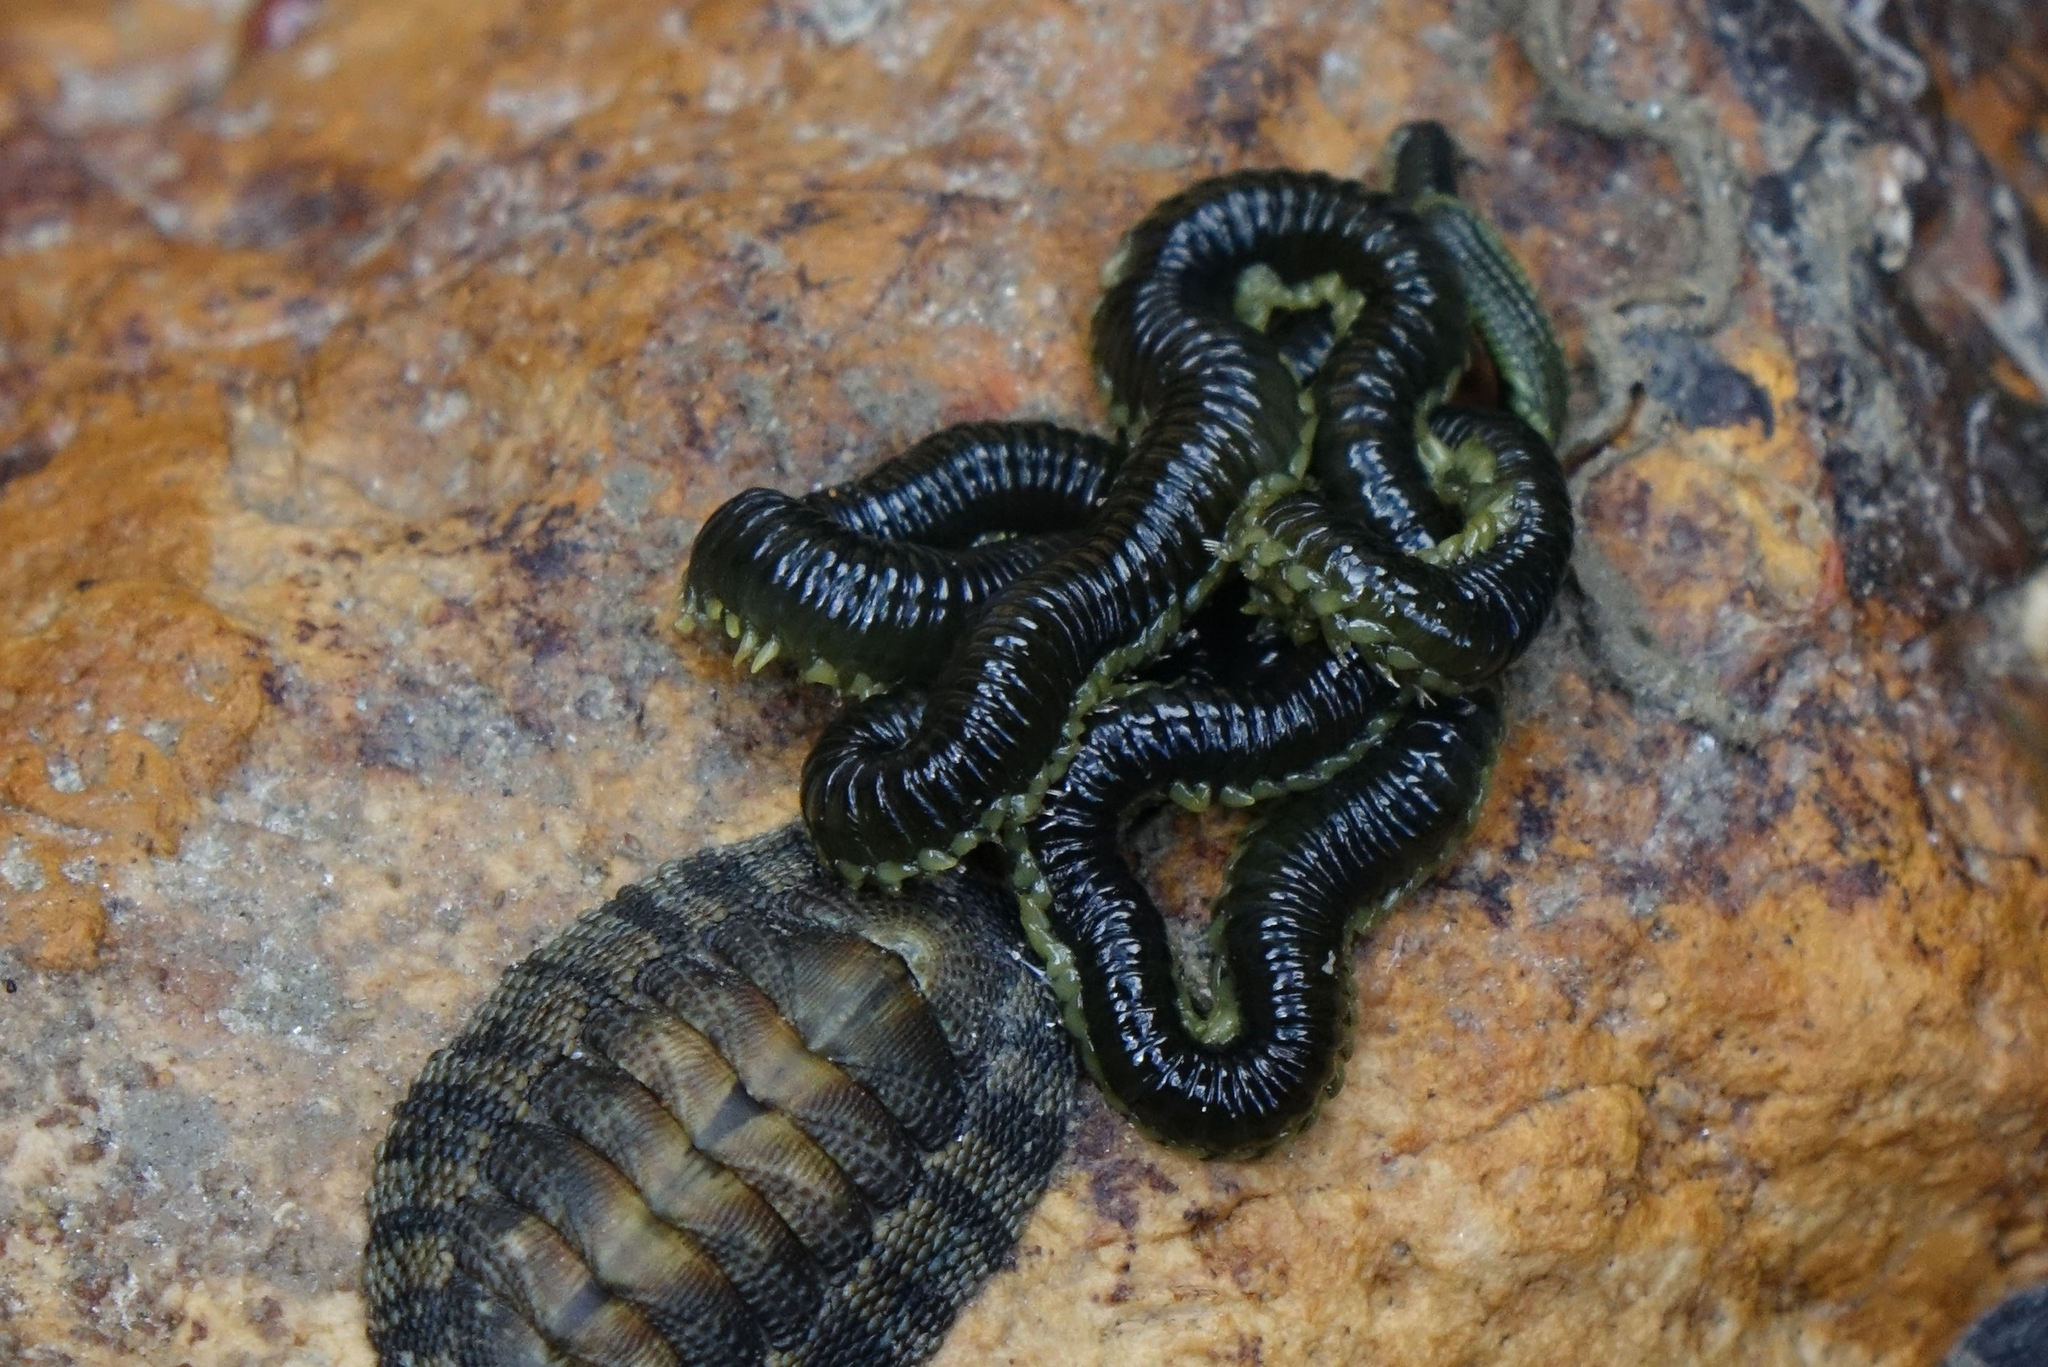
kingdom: Animalia
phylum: Annelida
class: Polychaeta
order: Phyllodocida
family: Phyllodocidae
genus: Eulalia
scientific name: Eulalia microphylla
